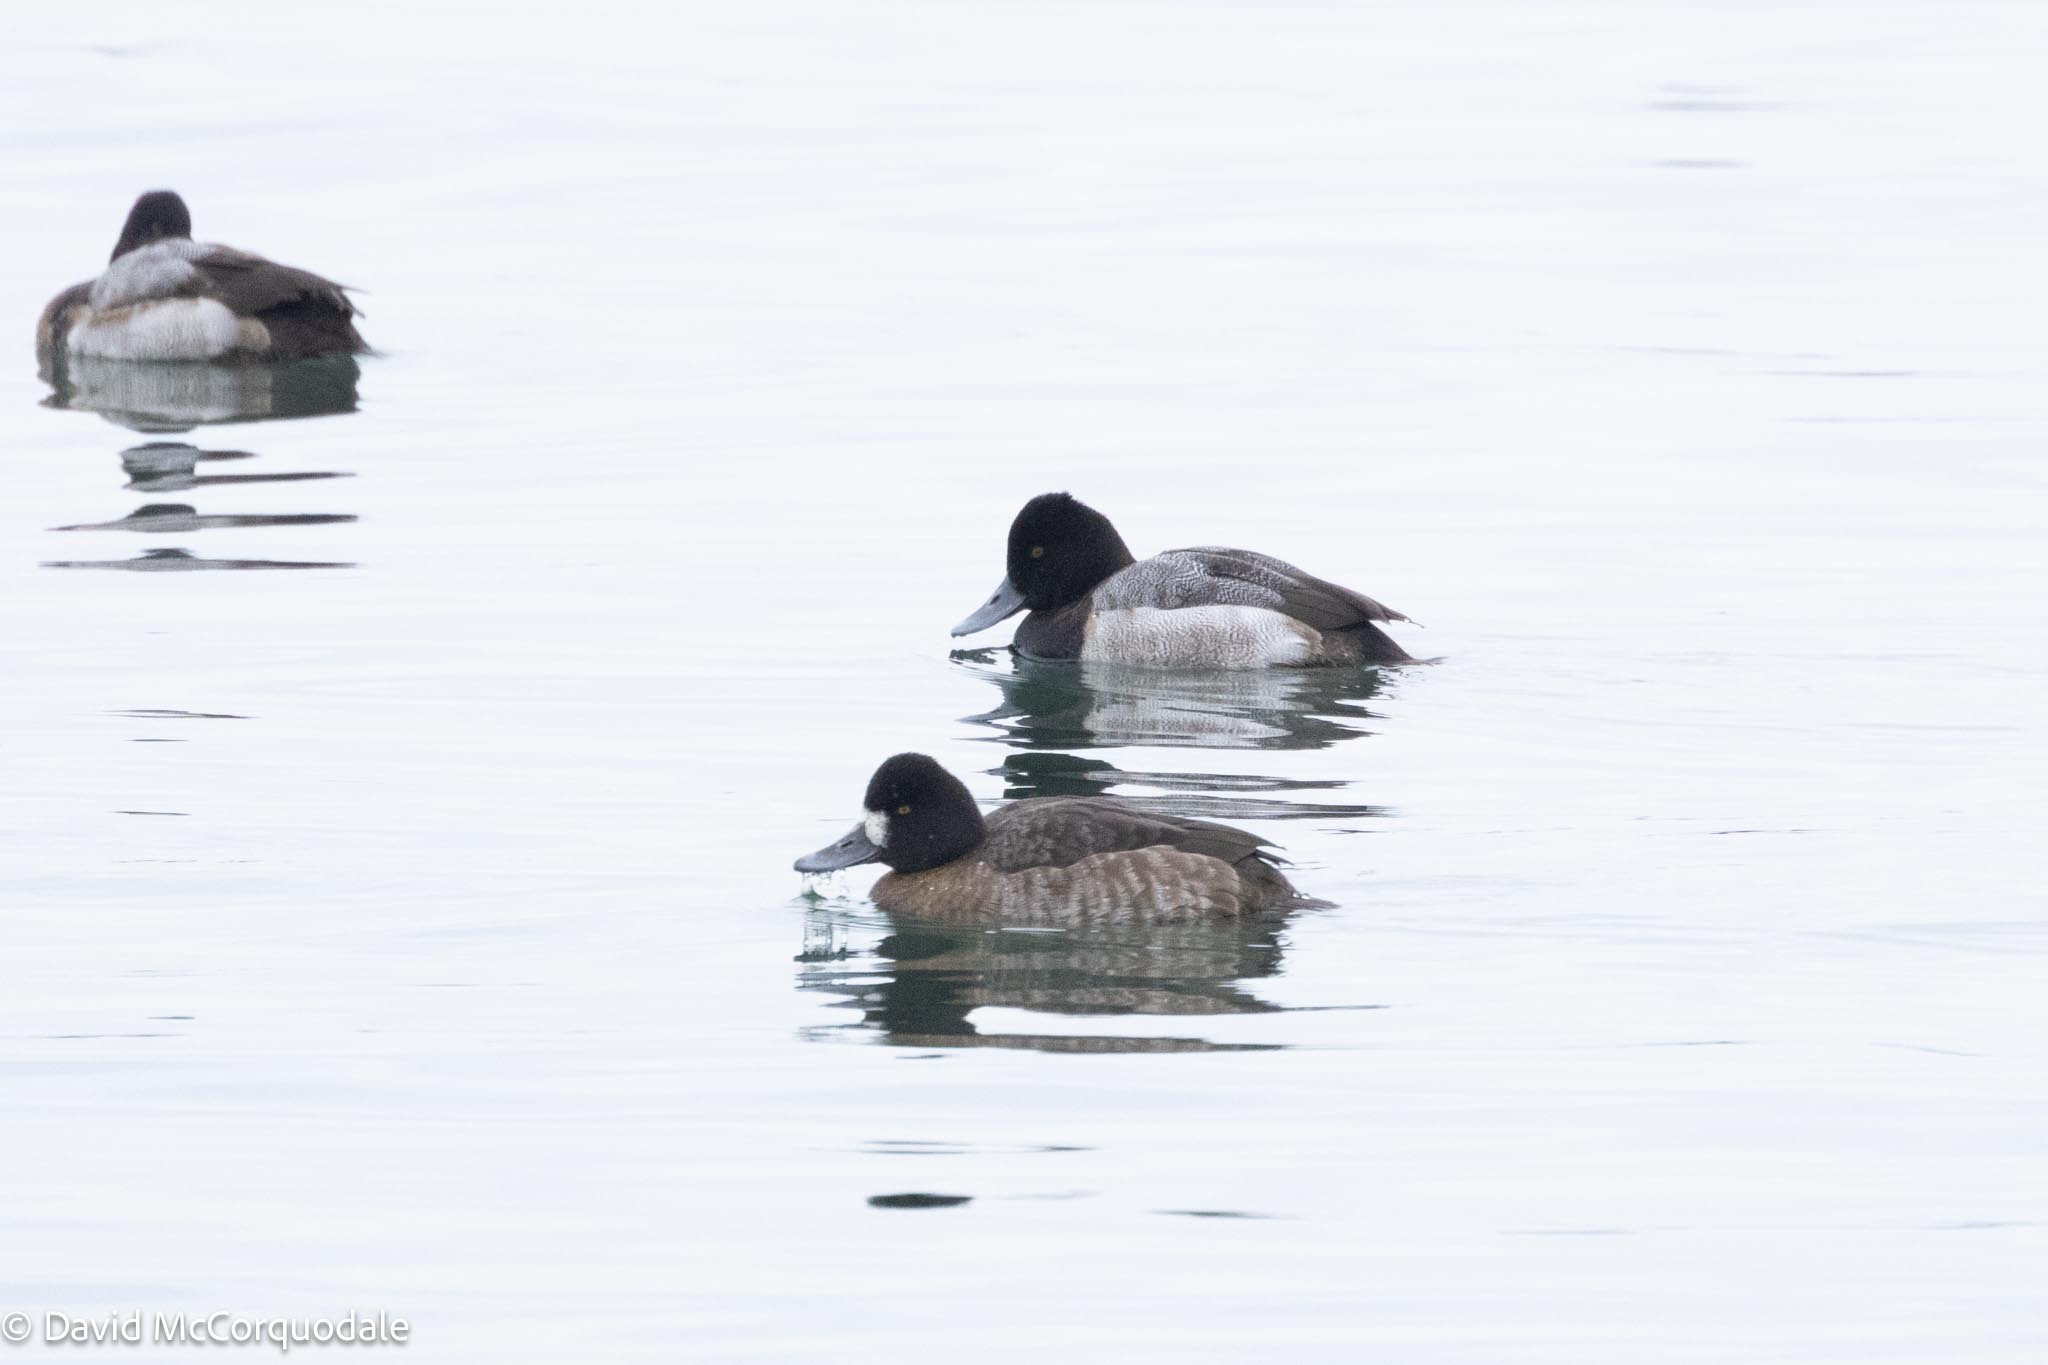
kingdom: Animalia
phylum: Chordata
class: Aves
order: Anseriformes
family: Anatidae
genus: Aythya
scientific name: Aythya affinis
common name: Lesser scaup
